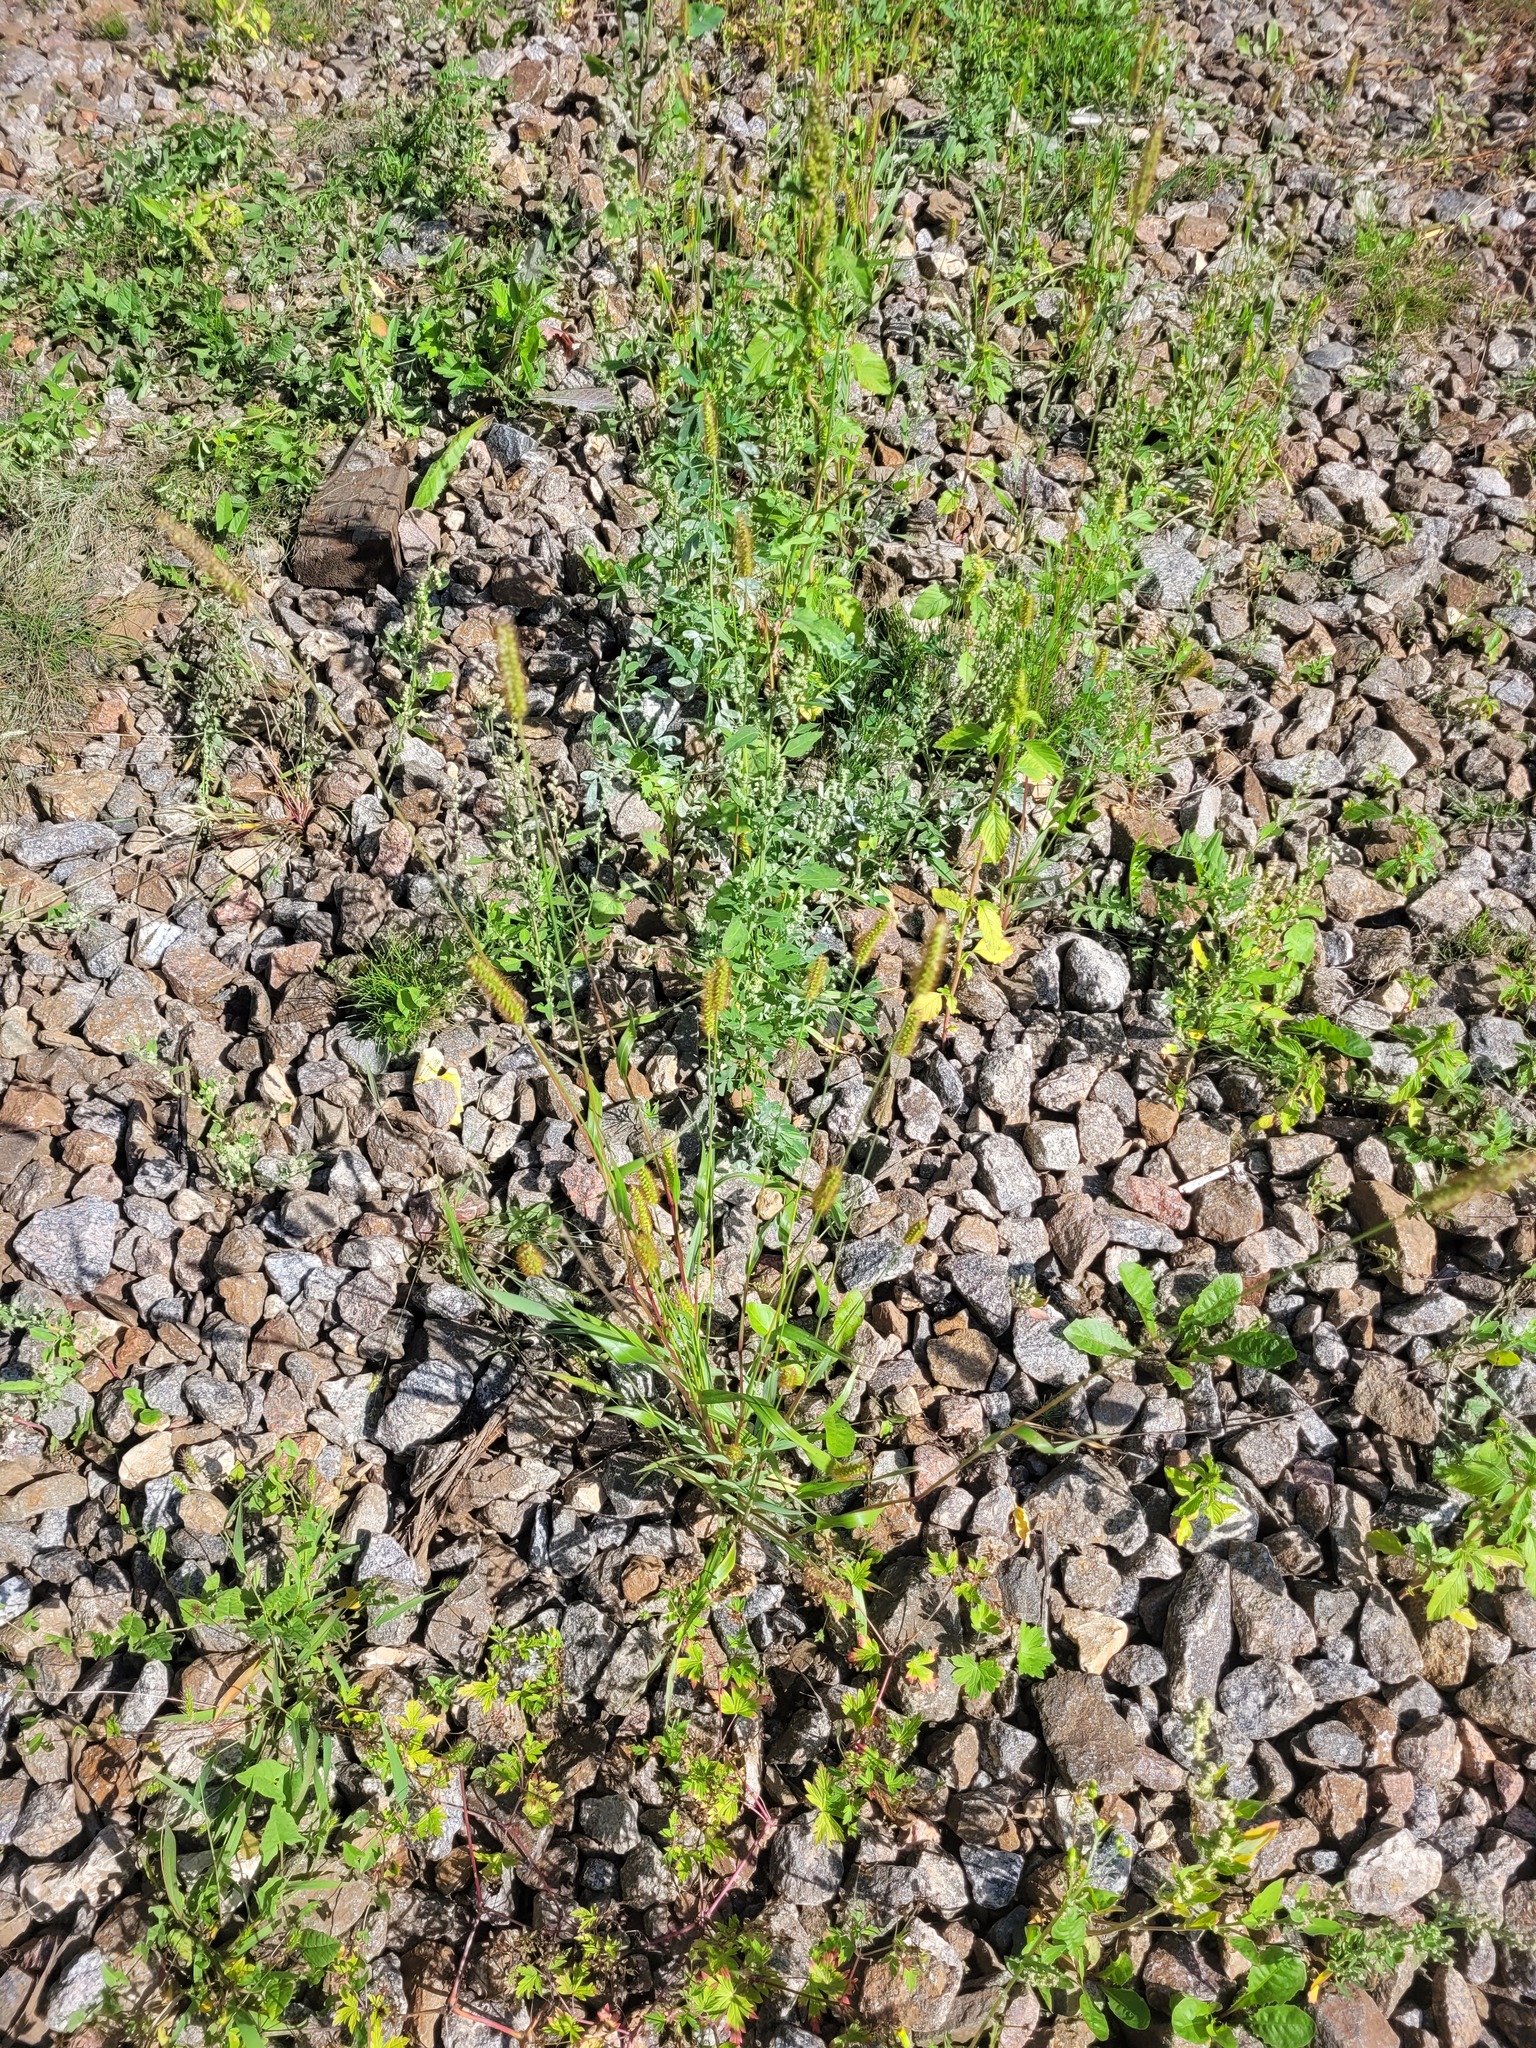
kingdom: Plantae
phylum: Tracheophyta
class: Liliopsida
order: Poales
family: Poaceae
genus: Setaria
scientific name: Setaria pumila
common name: Yellow bristle-grass
